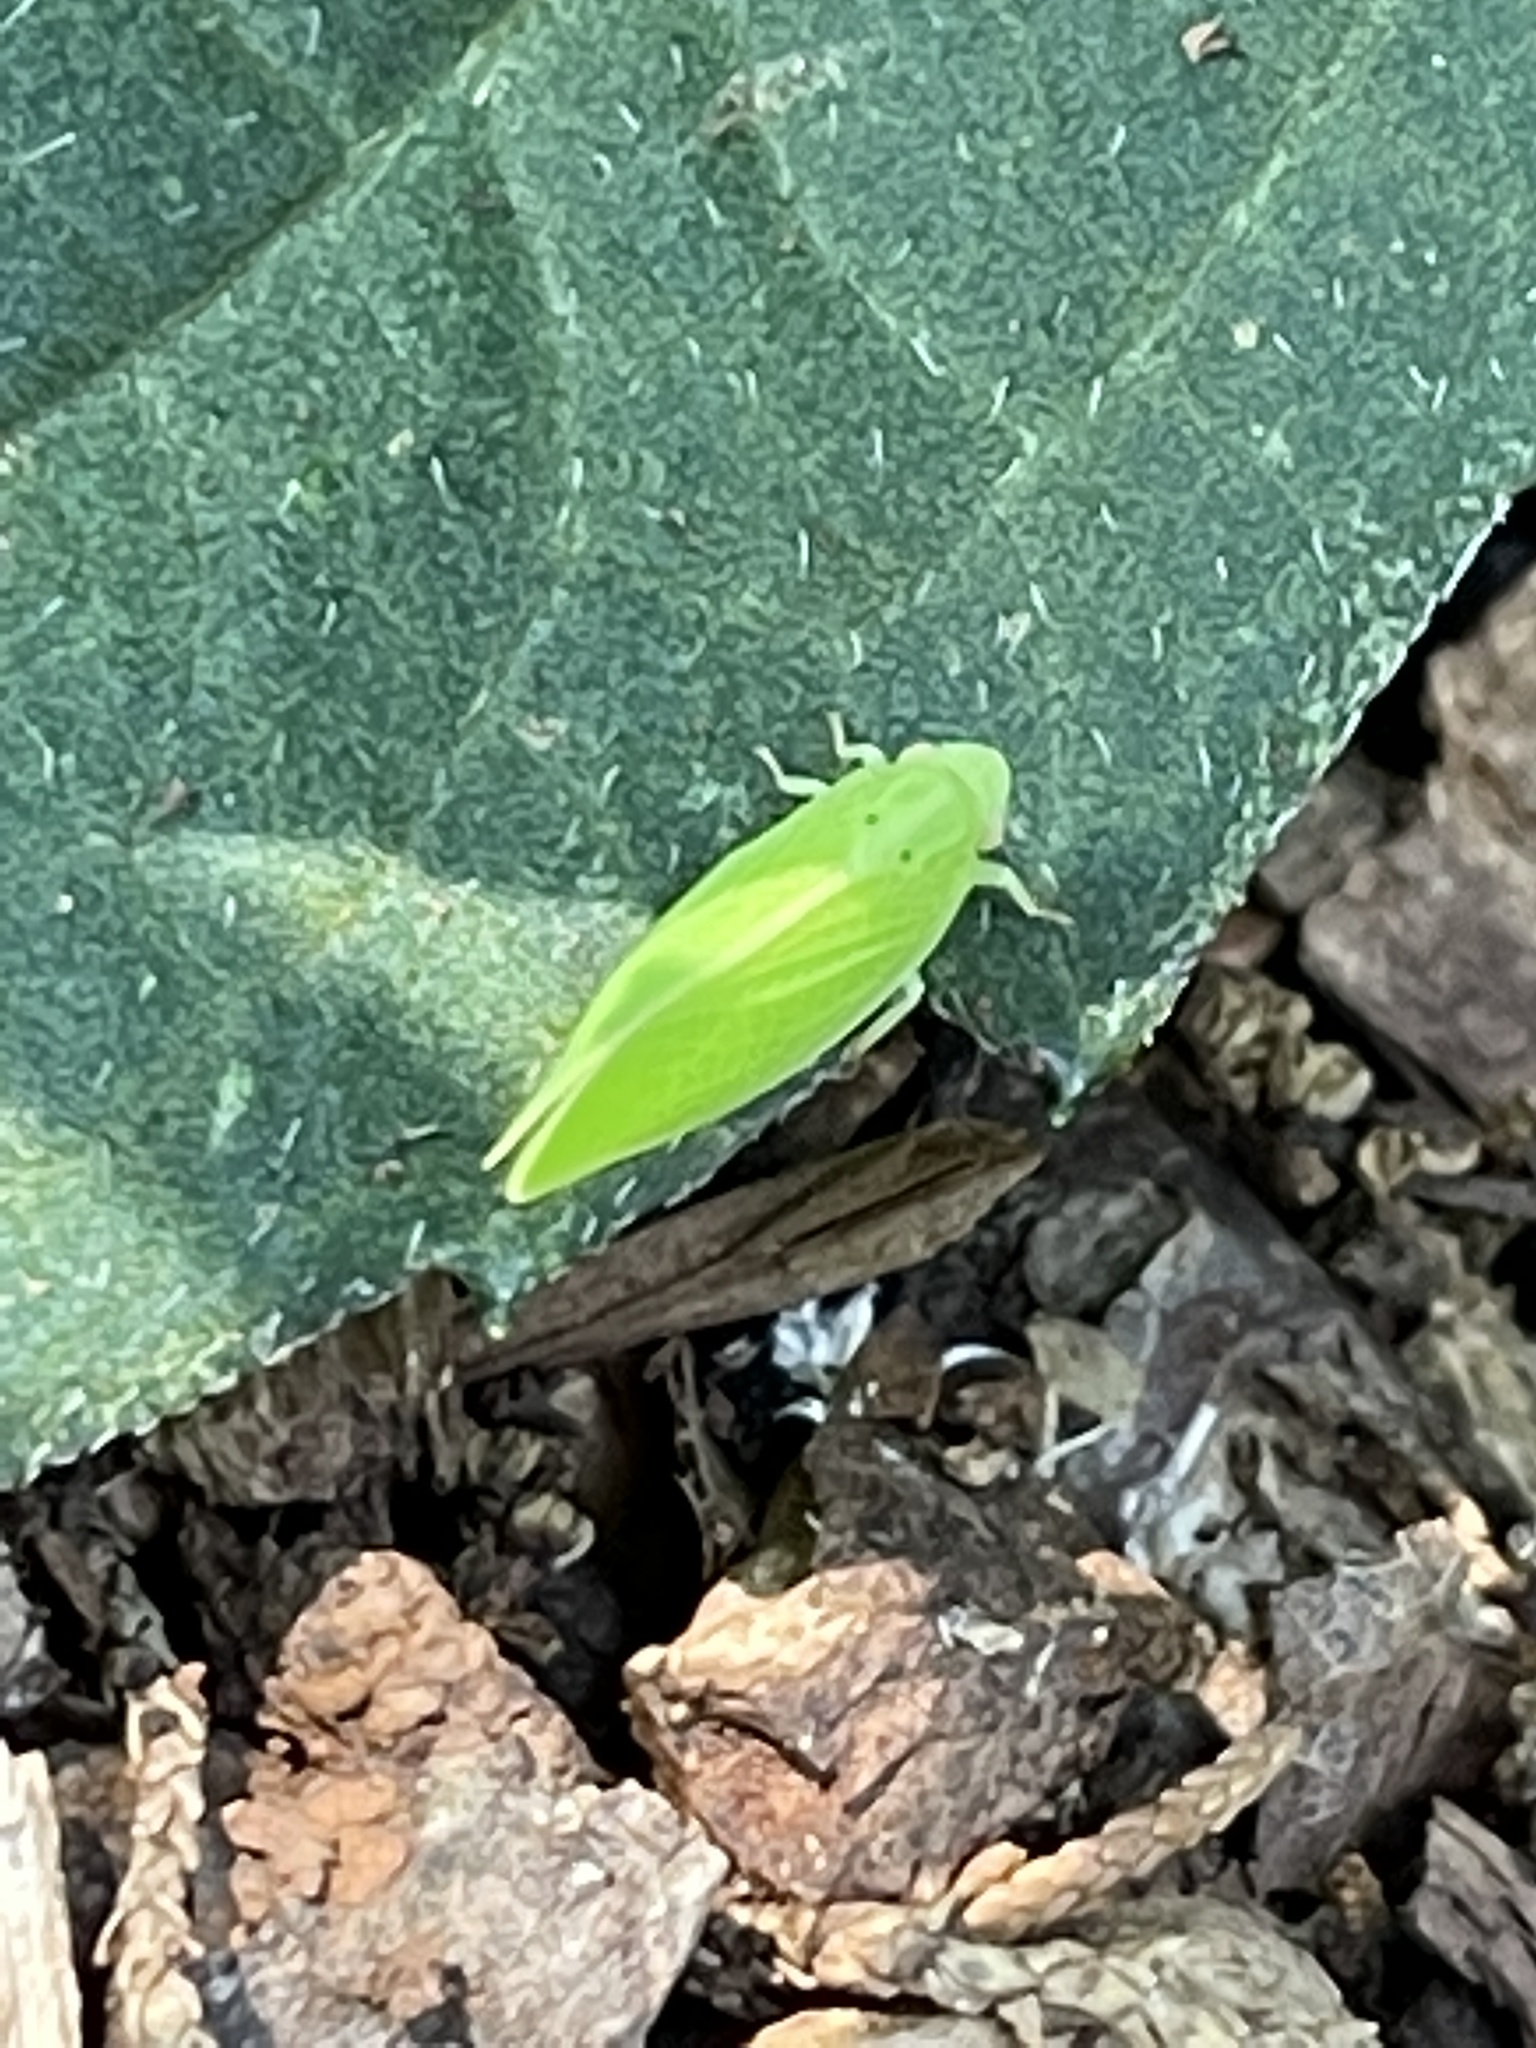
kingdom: Animalia
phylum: Arthropoda
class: Insecta
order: Hemiptera
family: Acanaloniidae
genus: Acanalonia
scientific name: Acanalonia conica
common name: Green cone-headed planthopper
